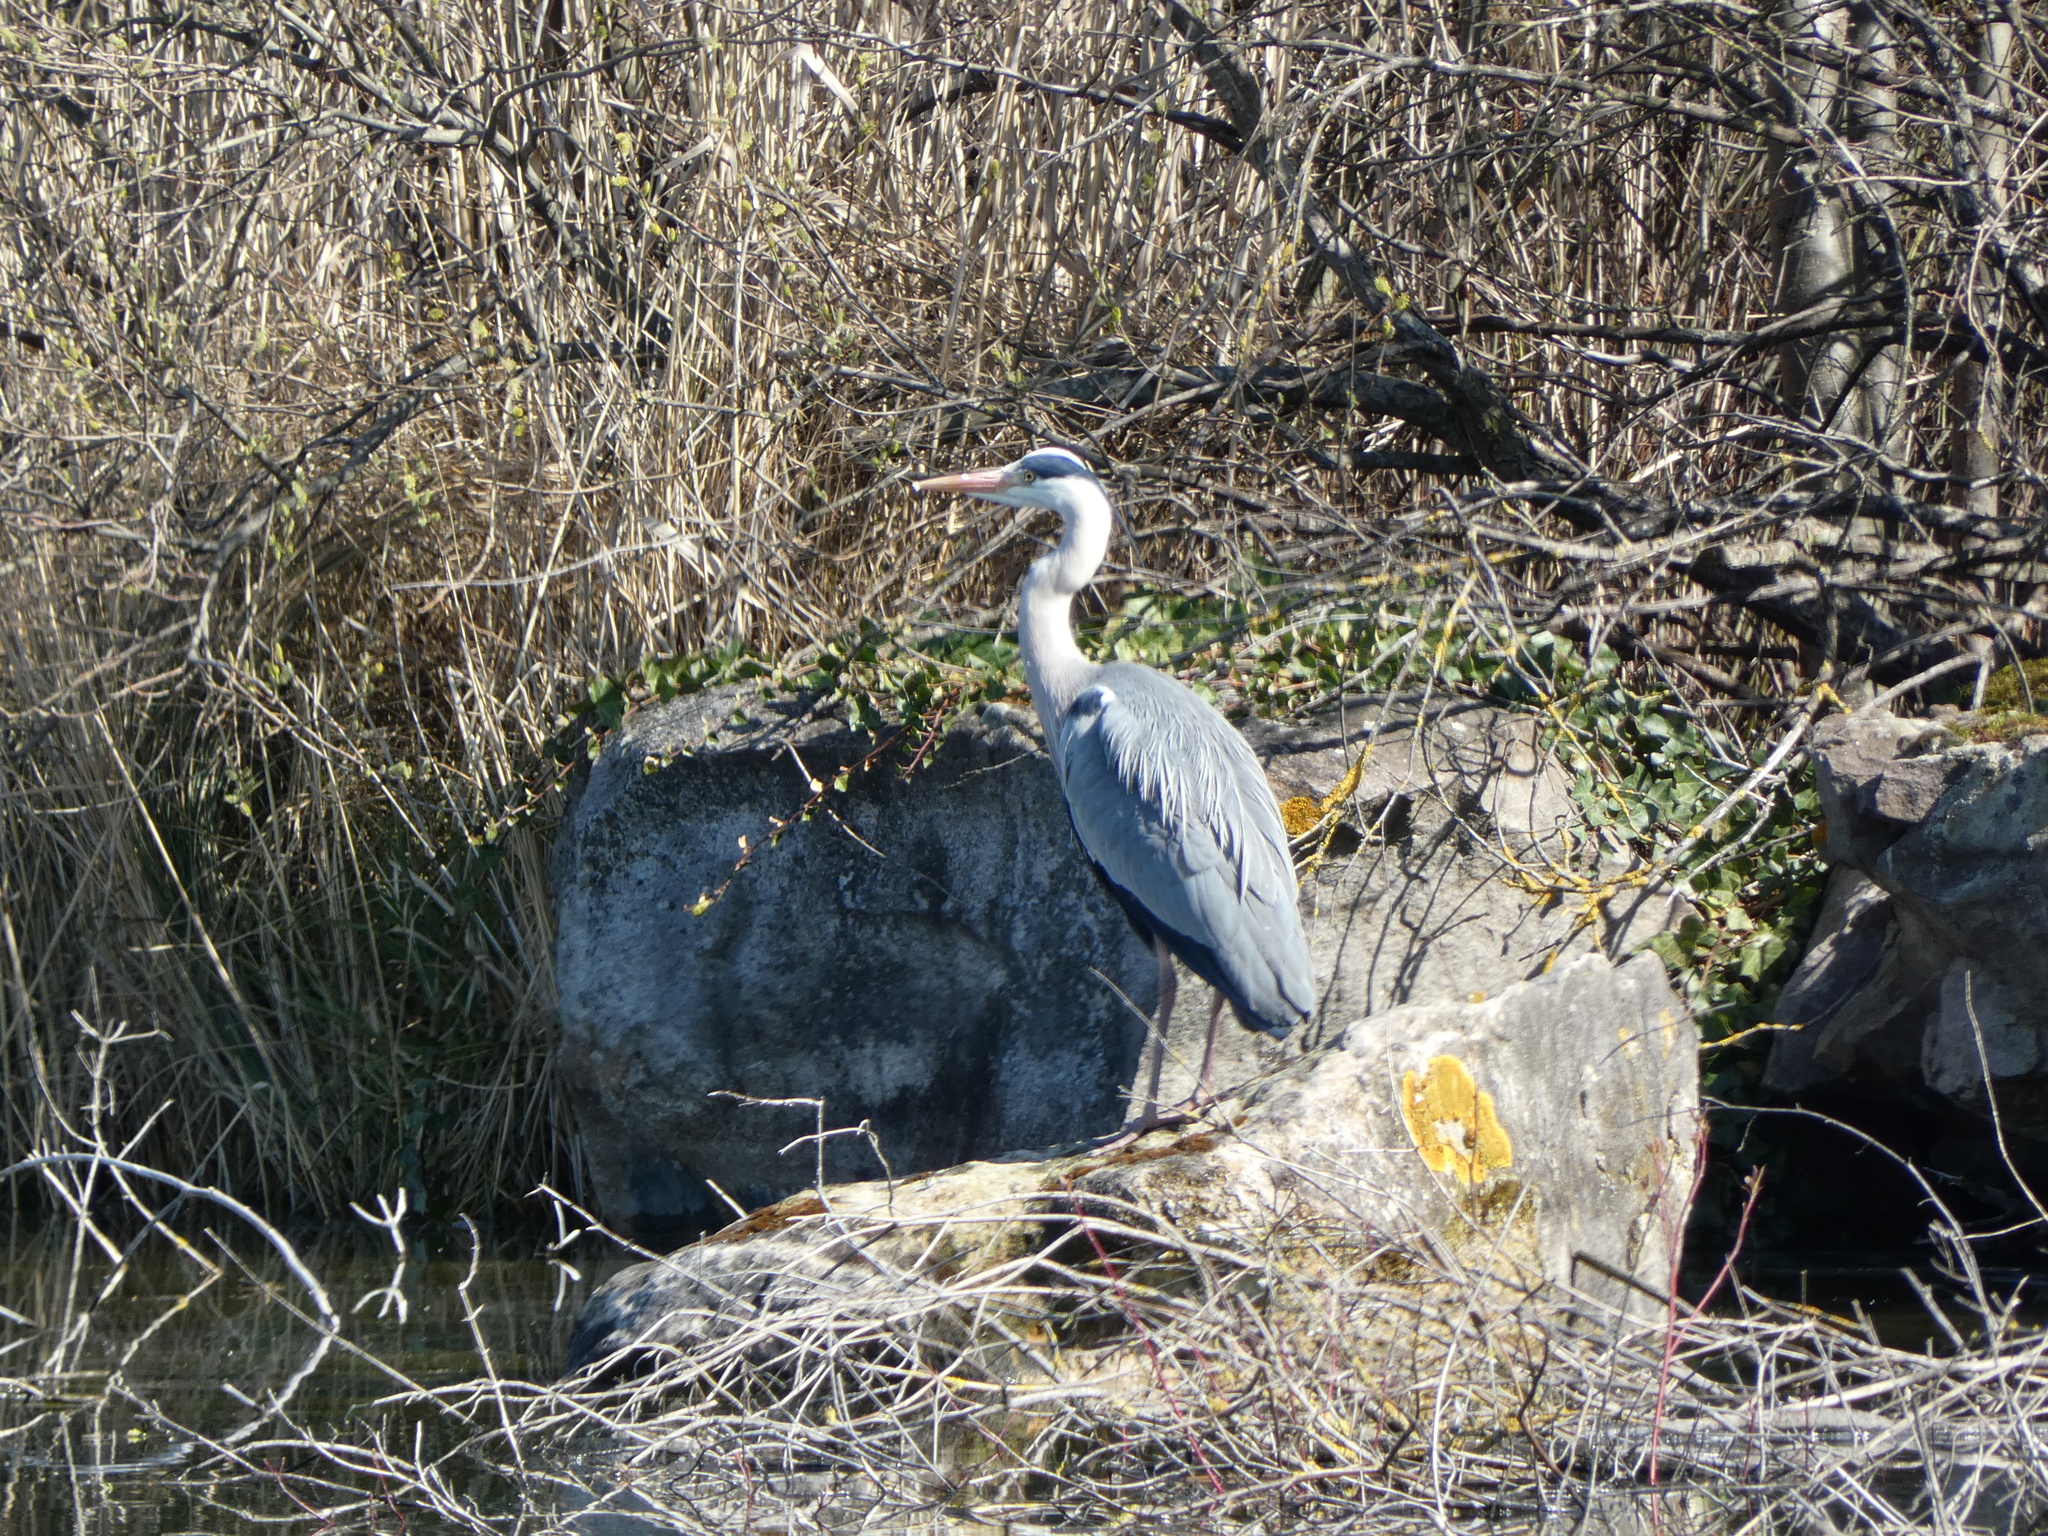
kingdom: Animalia
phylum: Chordata
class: Aves
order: Pelecaniformes
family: Ardeidae
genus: Ardea
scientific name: Ardea cinerea
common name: Grey heron
